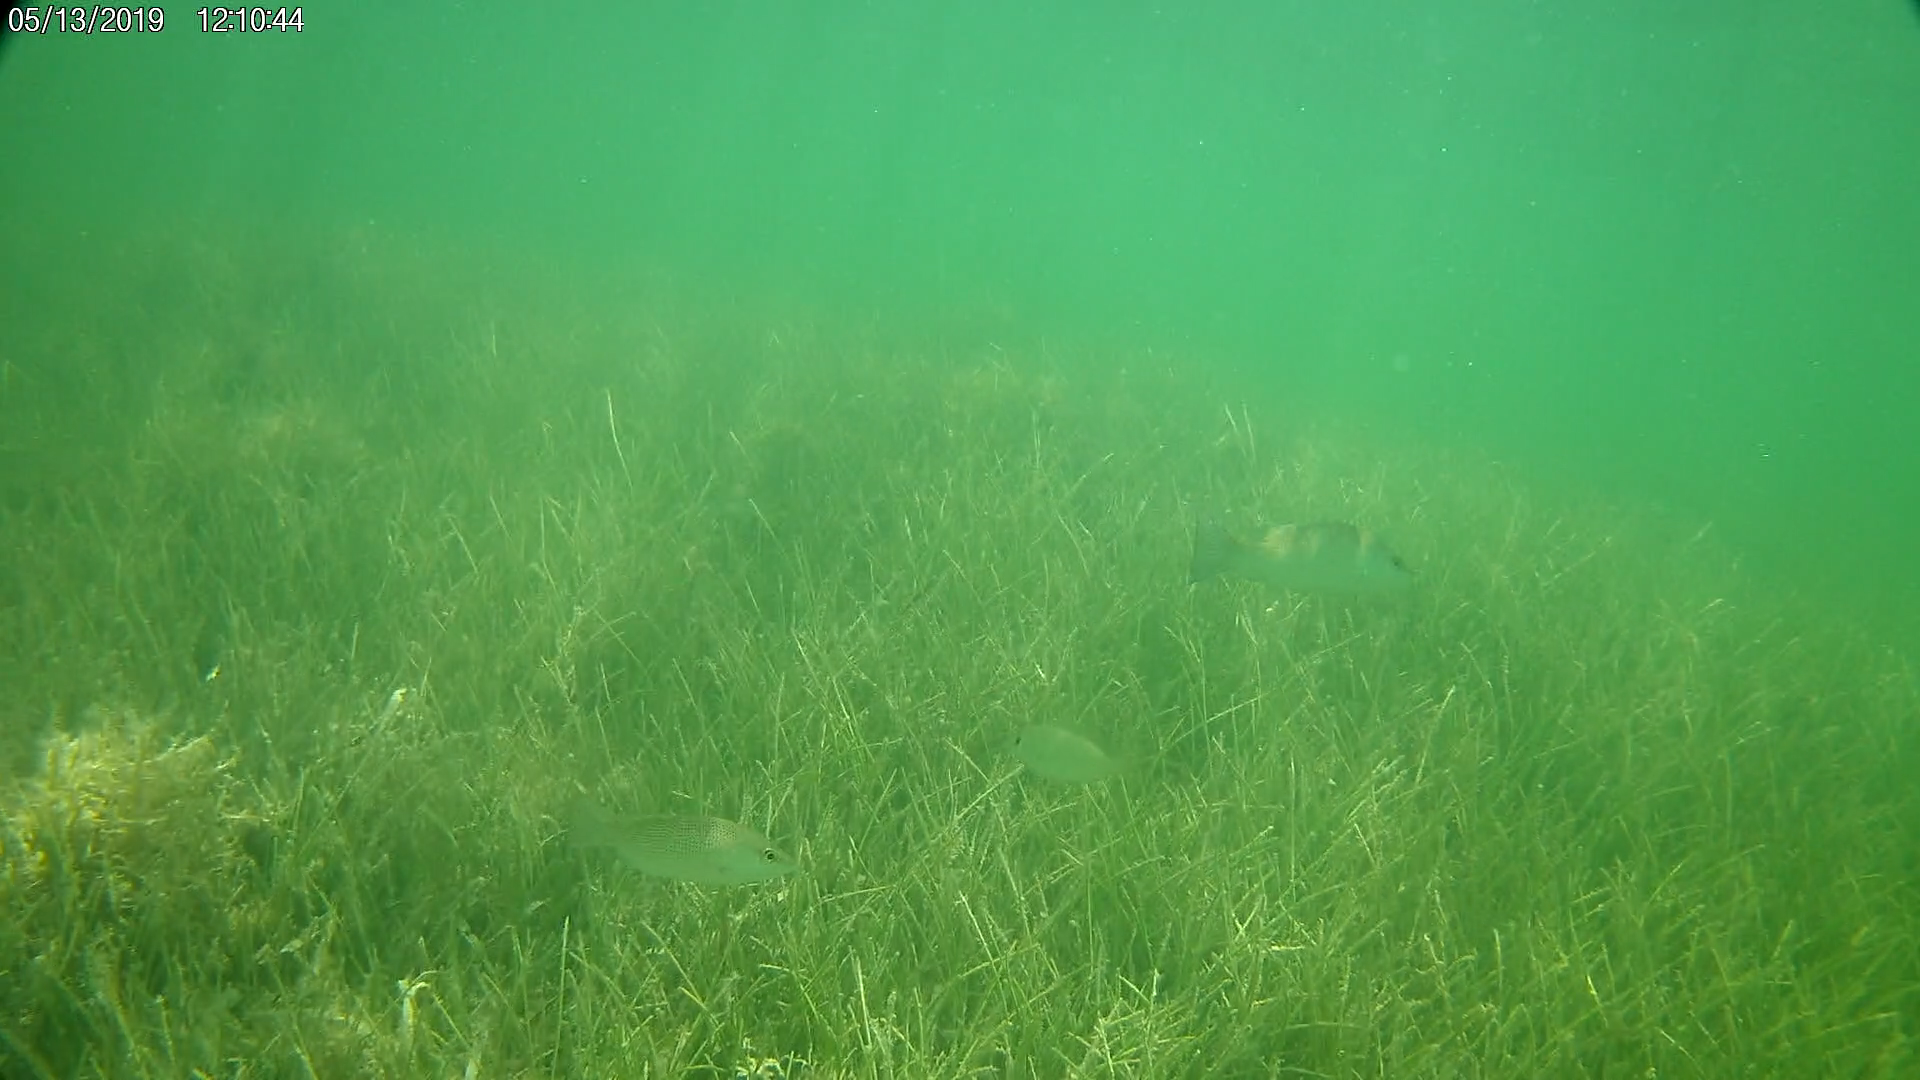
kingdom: Animalia
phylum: Chordata
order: Perciformes
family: Lutjanidae
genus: Lutjanus
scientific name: Lutjanus griseus
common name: Gray snapper
